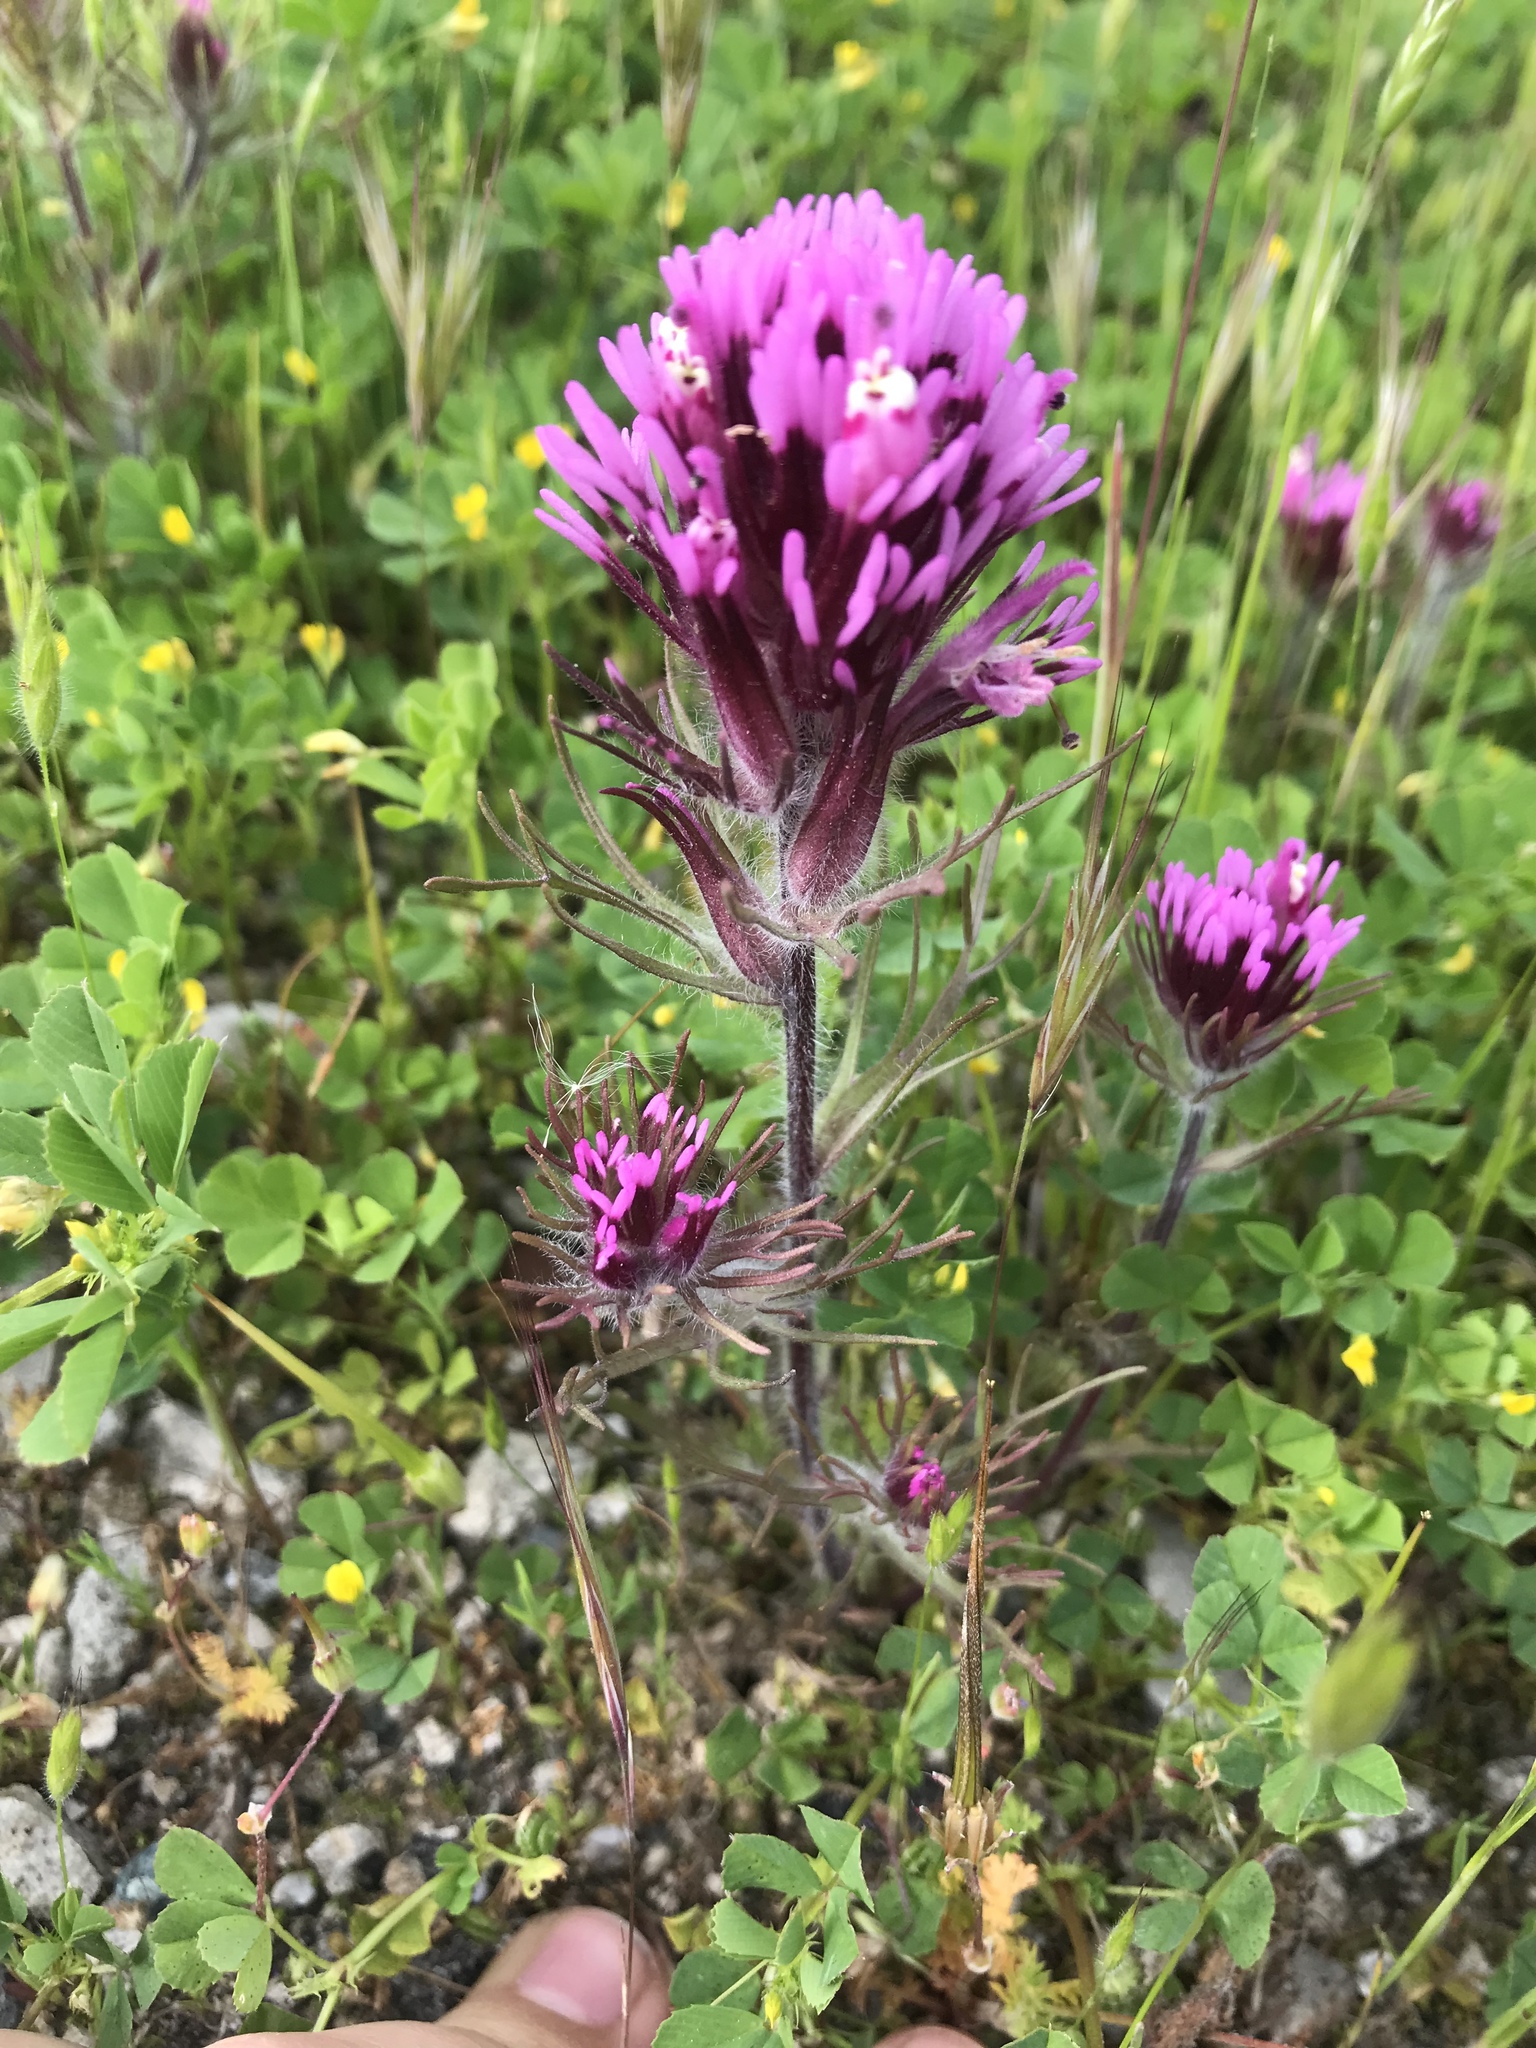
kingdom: Plantae
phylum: Tracheophyta
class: Magnoliopsida
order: Lamiales
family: Orobanchaceae
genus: Castilleja
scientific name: Castilleja exserta
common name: Purple owl-clover
